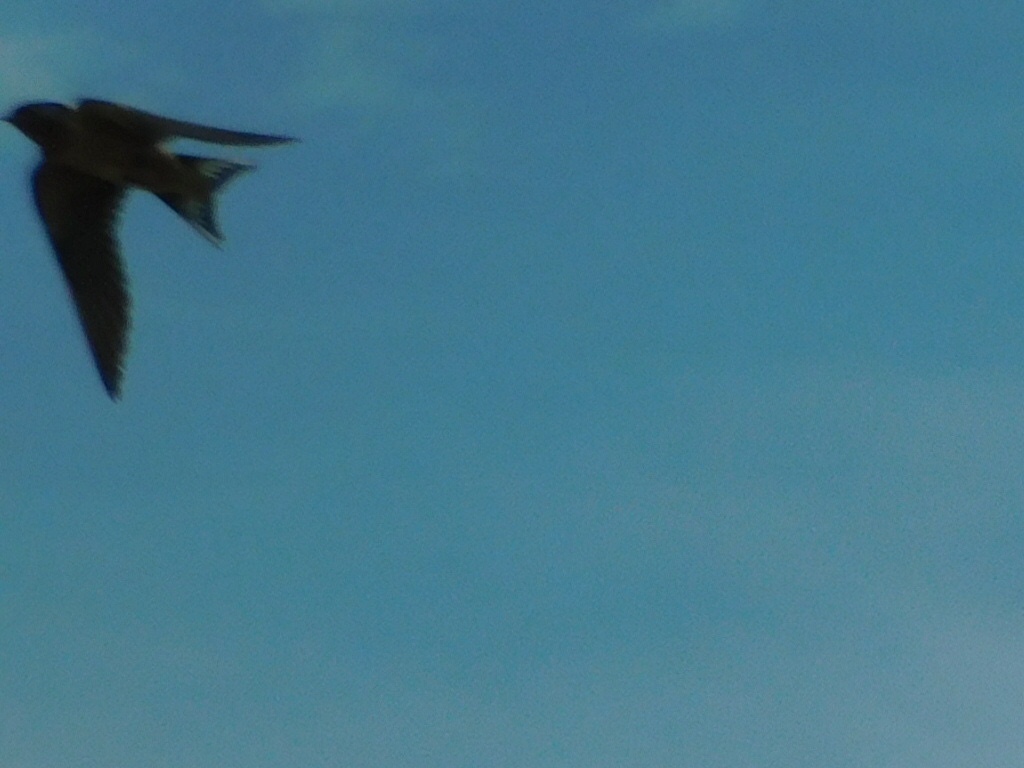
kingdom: Animalia
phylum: Chordata
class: Aves
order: Passeriformes
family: Hirundinidae
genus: Hirundo
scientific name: Hirundo rustica
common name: Barn swallow
